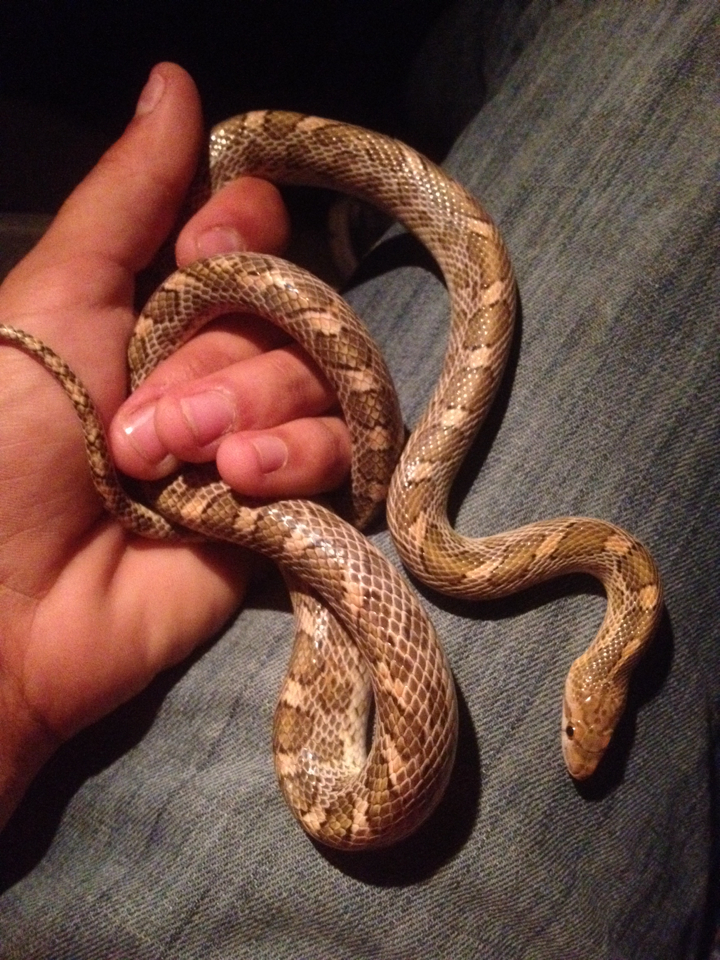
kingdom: Animalia
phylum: Chordata
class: Squamata
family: Colubridae
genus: Arizona
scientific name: Arizona elegans
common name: Glossy snake
